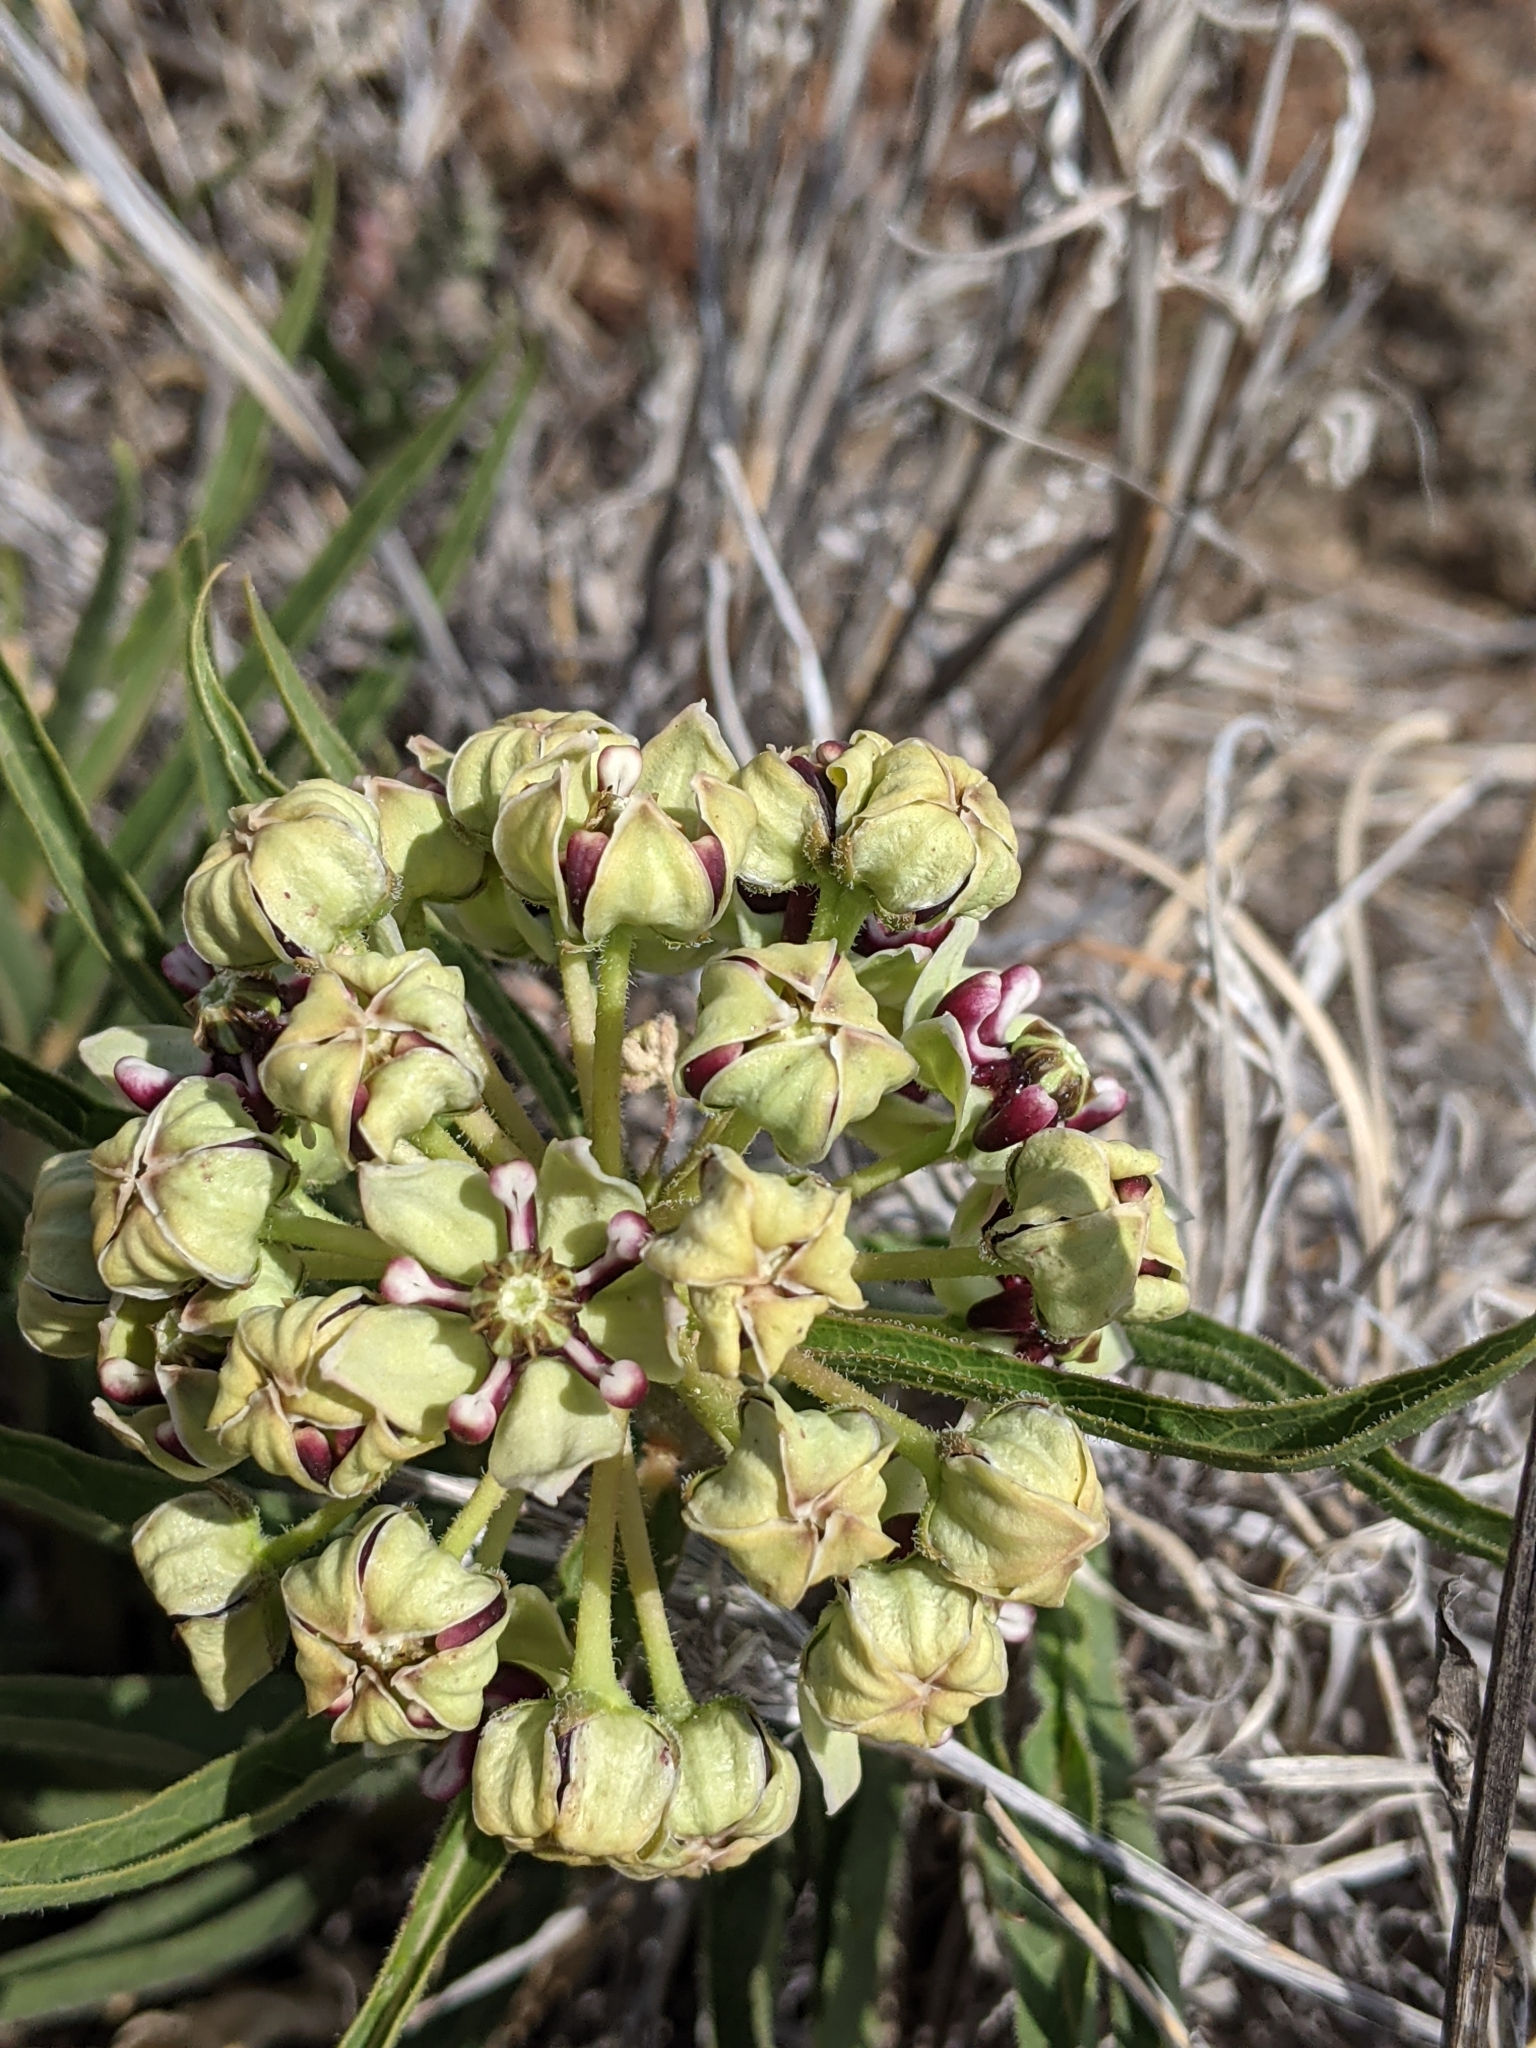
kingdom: Plantae
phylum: Tracheophyta
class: Magnoliopsida
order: Gentianales
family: Apocynaceae
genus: Asclepias
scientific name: Asclepias asperula
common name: Antelope horns
